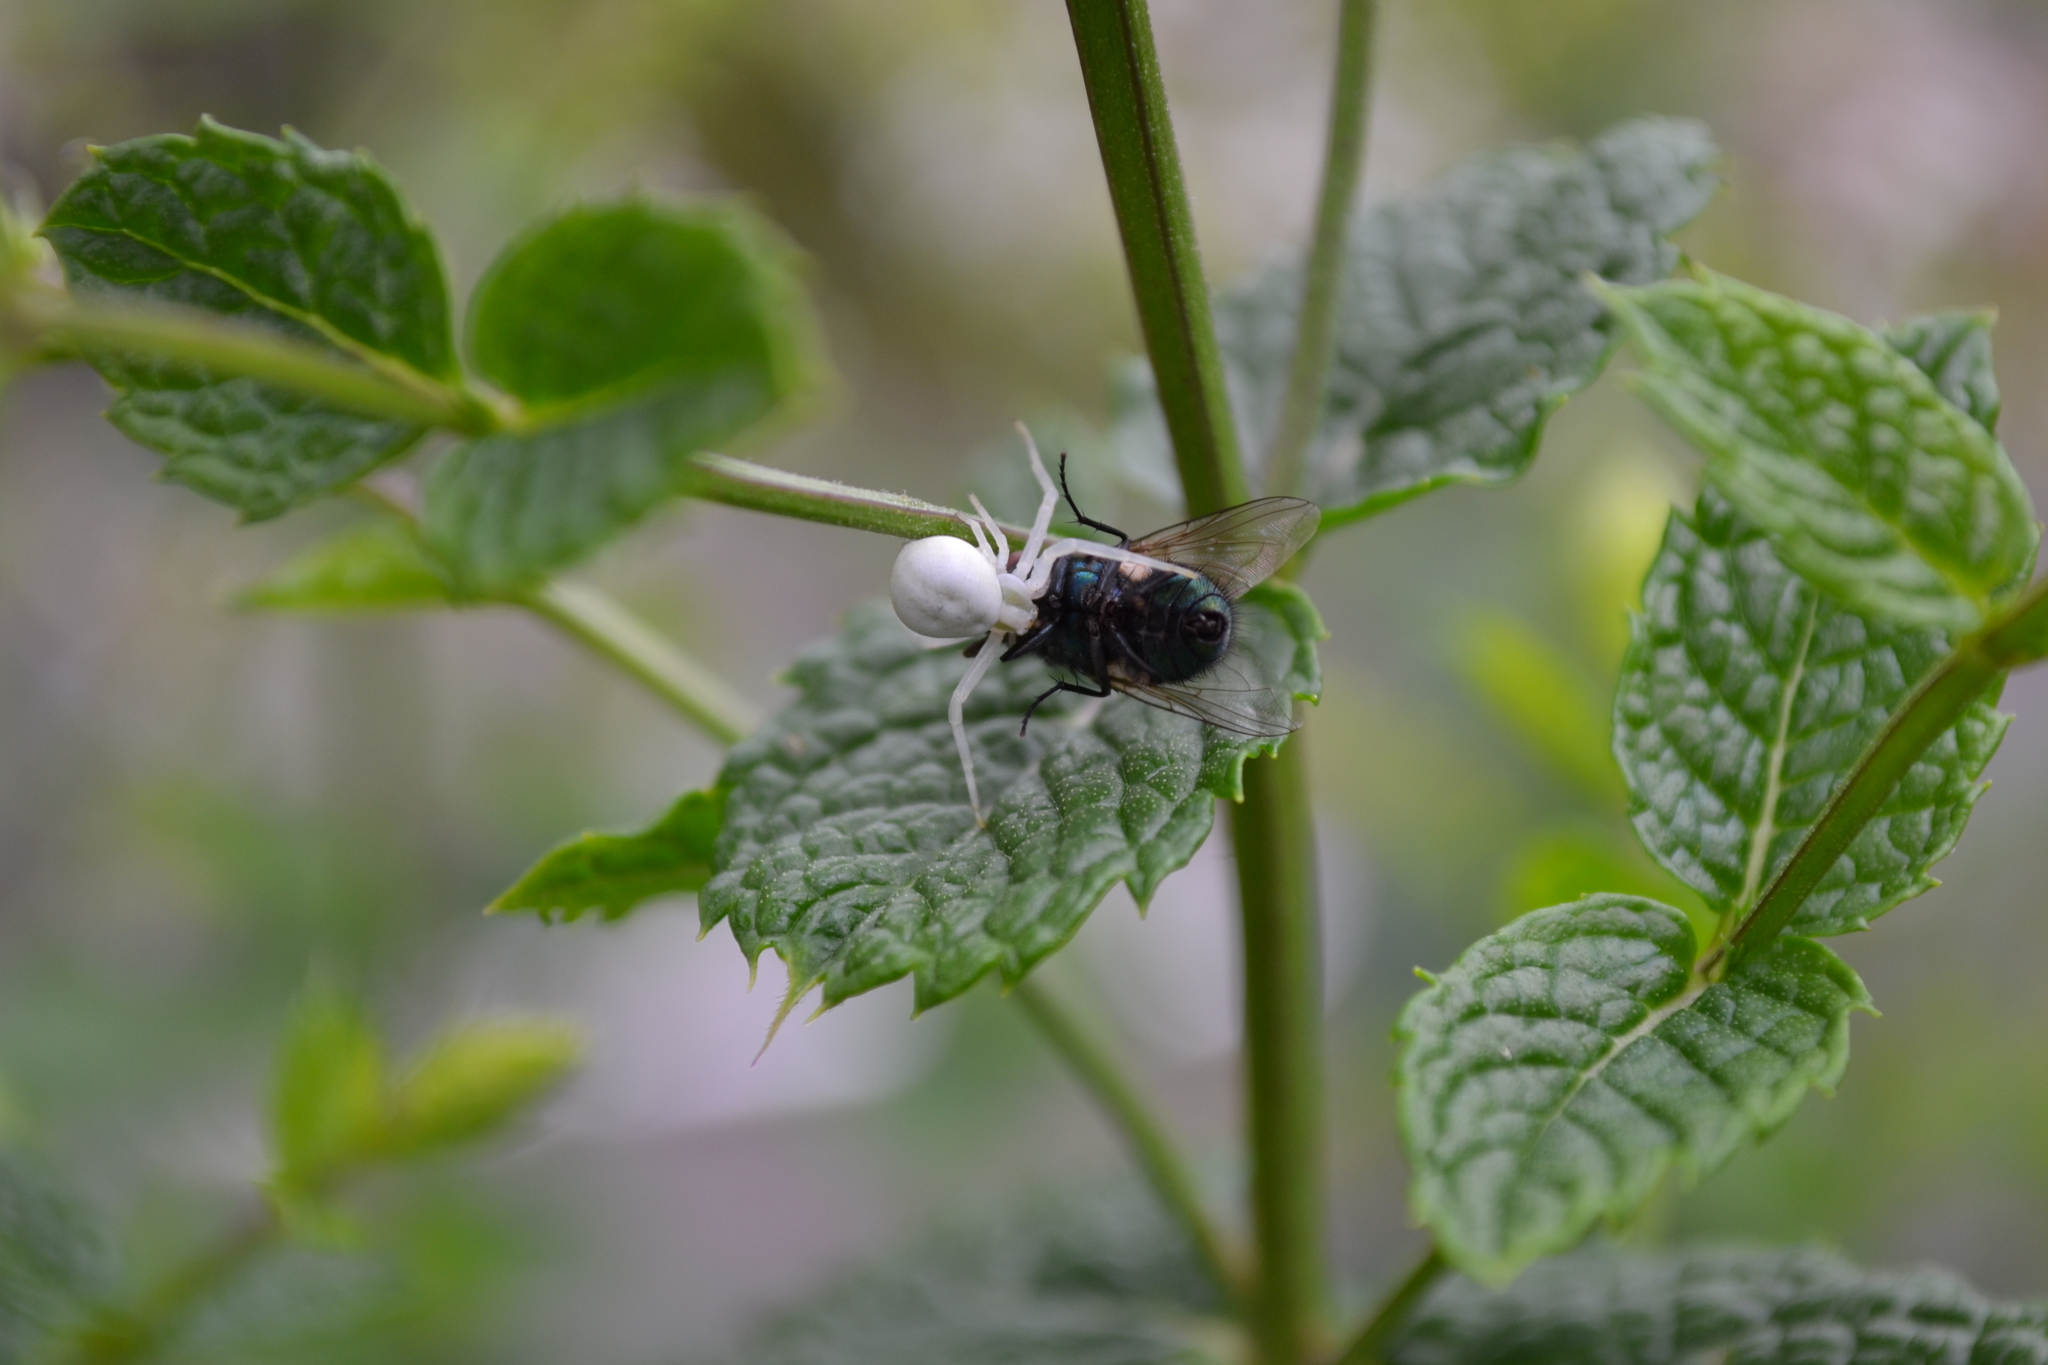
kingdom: Animalia
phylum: Arthropoda
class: Arachnida
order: Araneae
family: Thomisidae
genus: Misumena
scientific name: Misumena vatia
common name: Goldenrod crab spider
